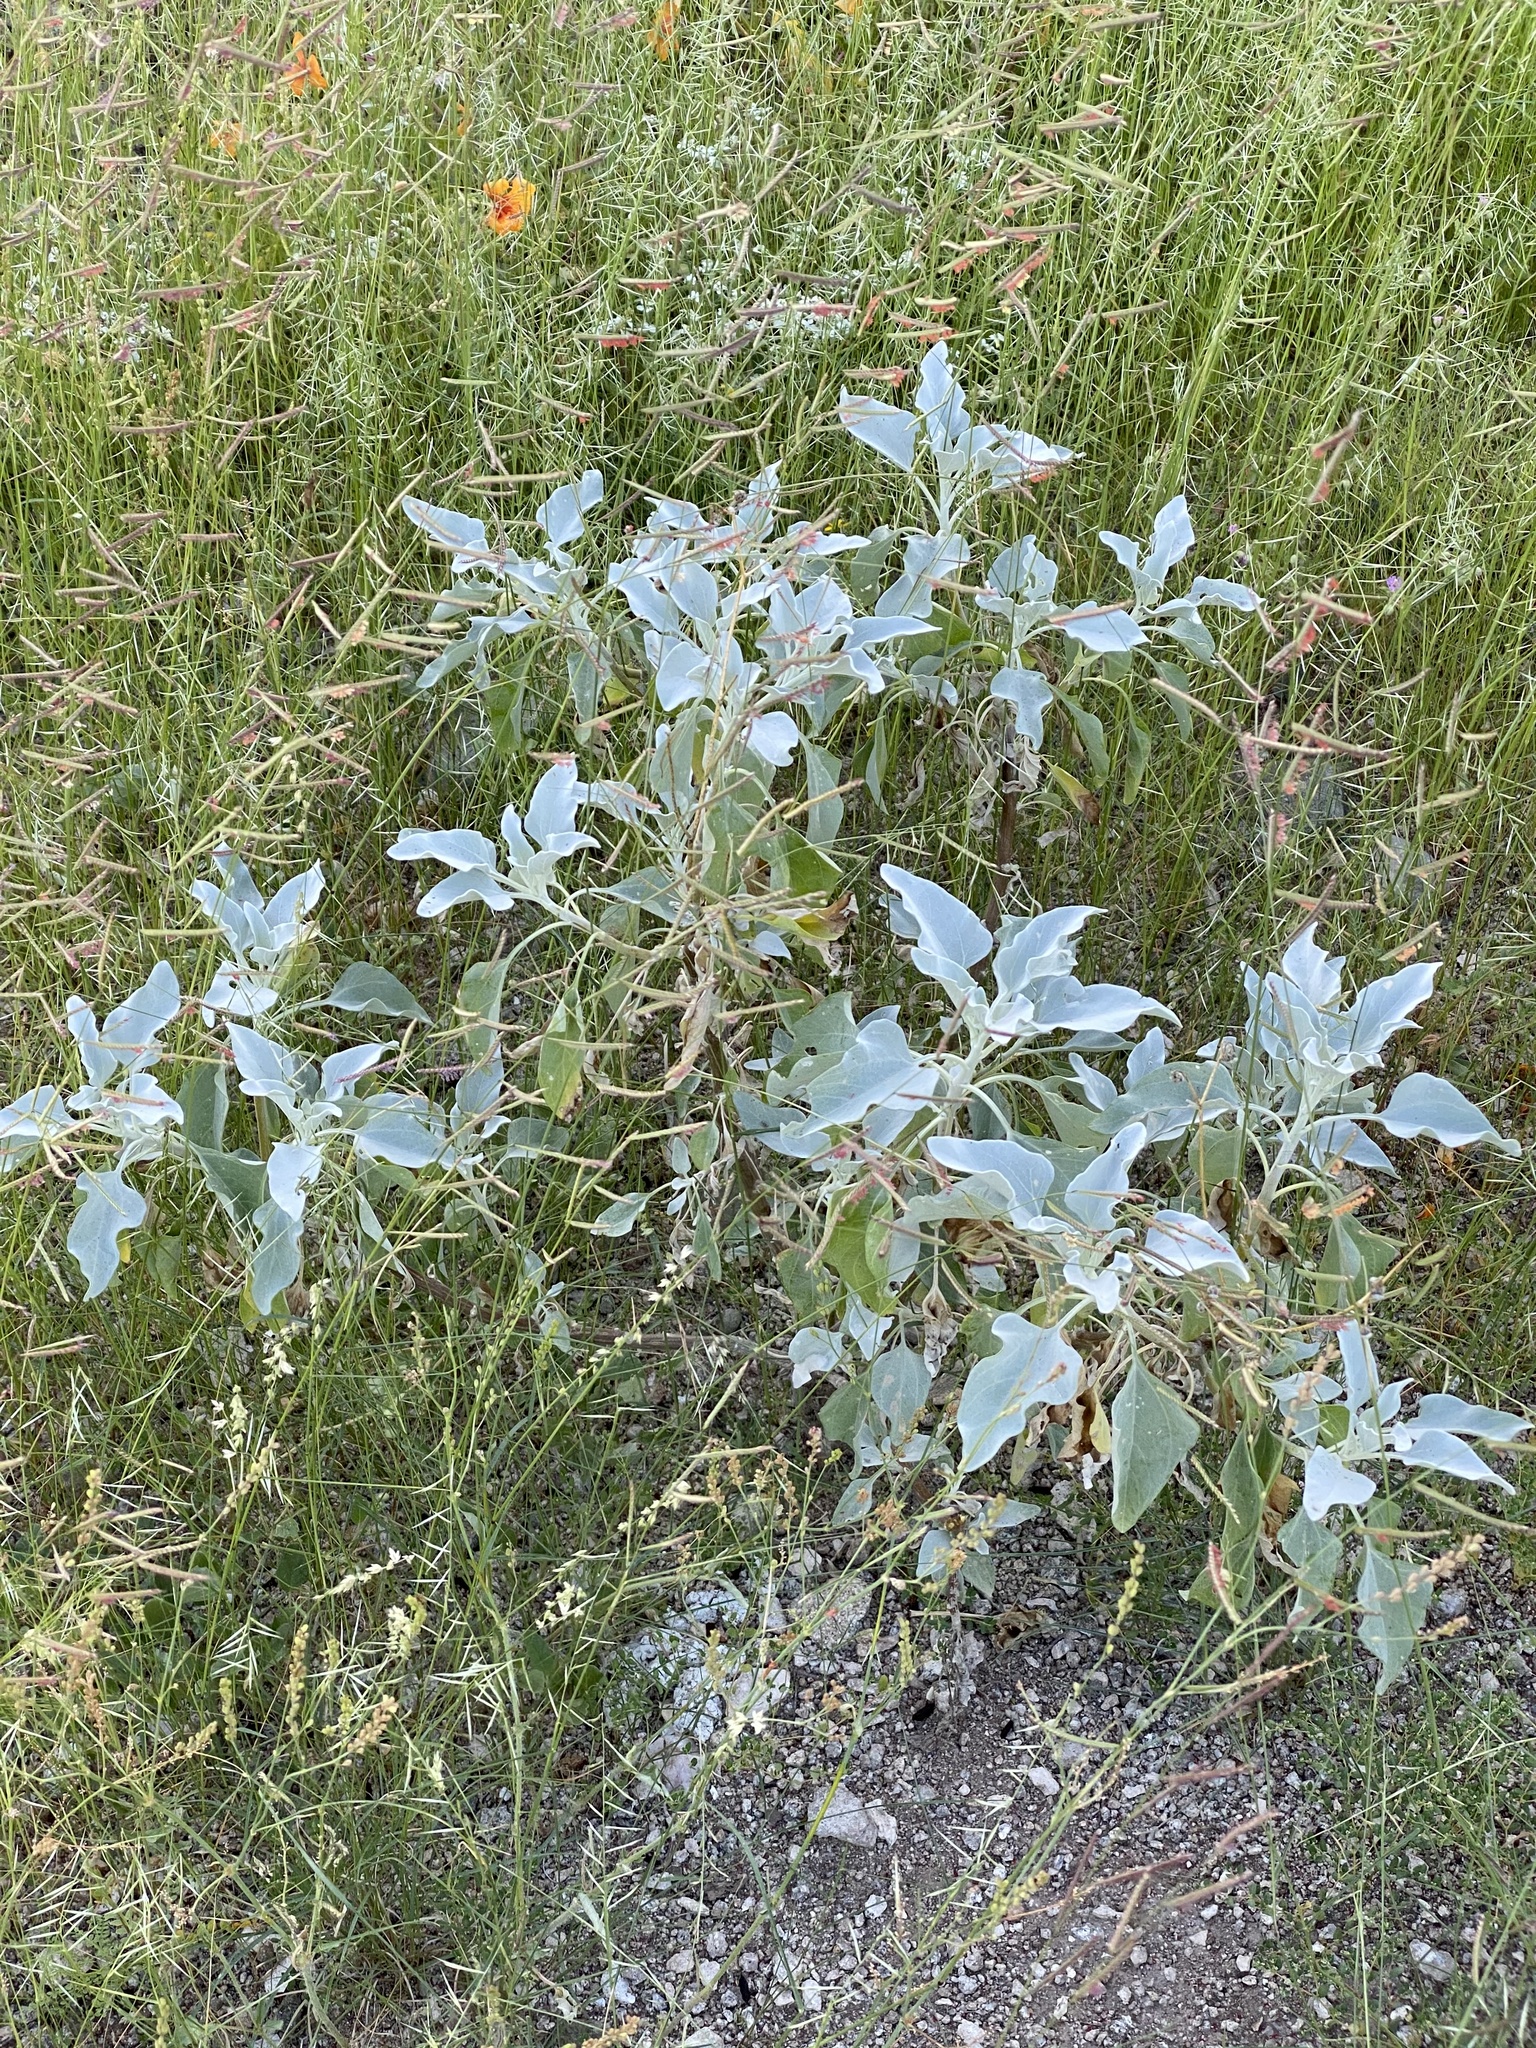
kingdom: Plantae
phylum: Tracheophyta
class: Magnoliopsida
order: Asterales
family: Asteraceae
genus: Encelia
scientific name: Encelia farinosa
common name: Brittlebush
